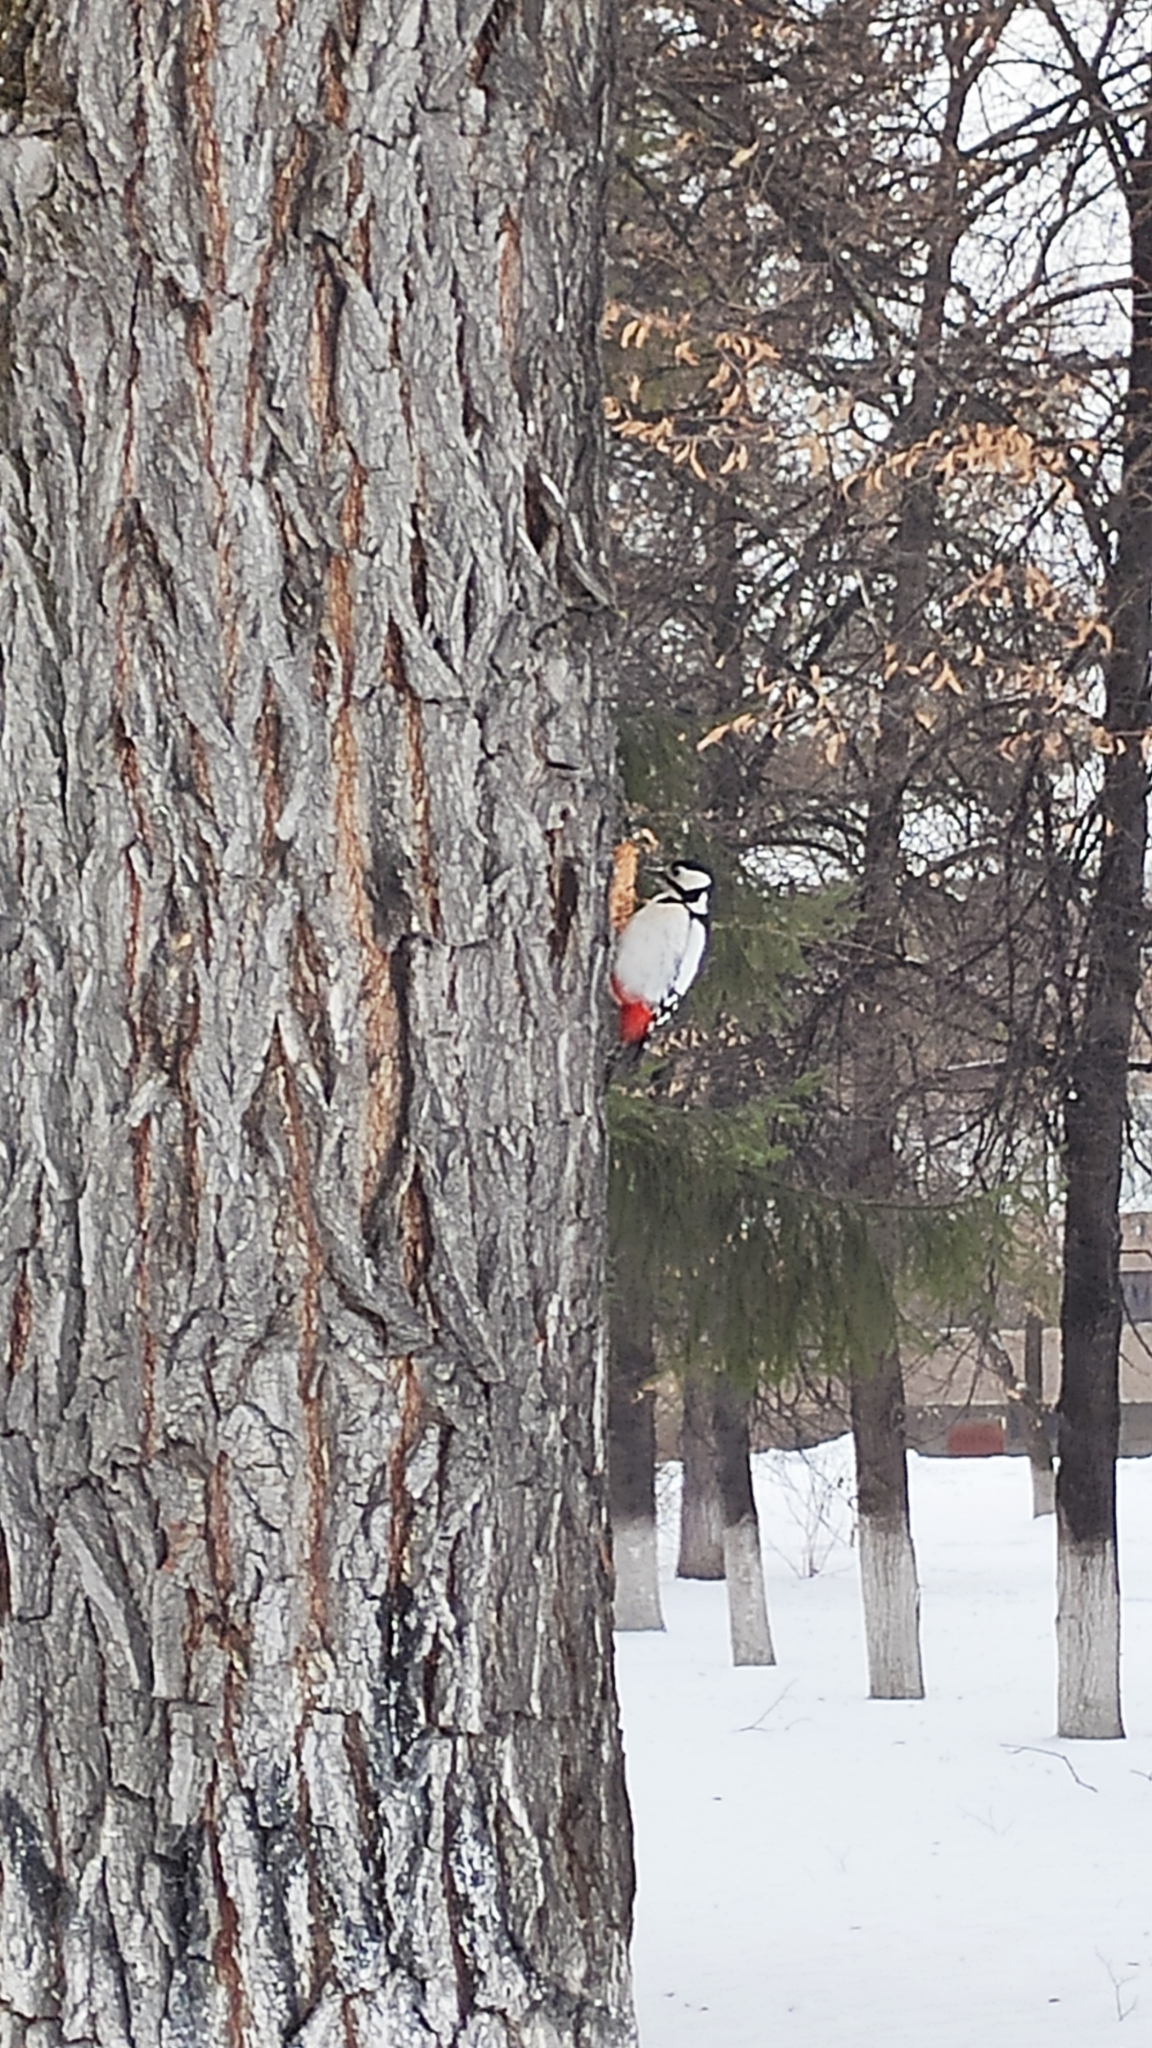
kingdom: Animalia
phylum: Chordata
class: Aves
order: Piciformes
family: Picidae
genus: Dendrocopos
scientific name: Dendrocopos major
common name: Great spotted woodpecker
